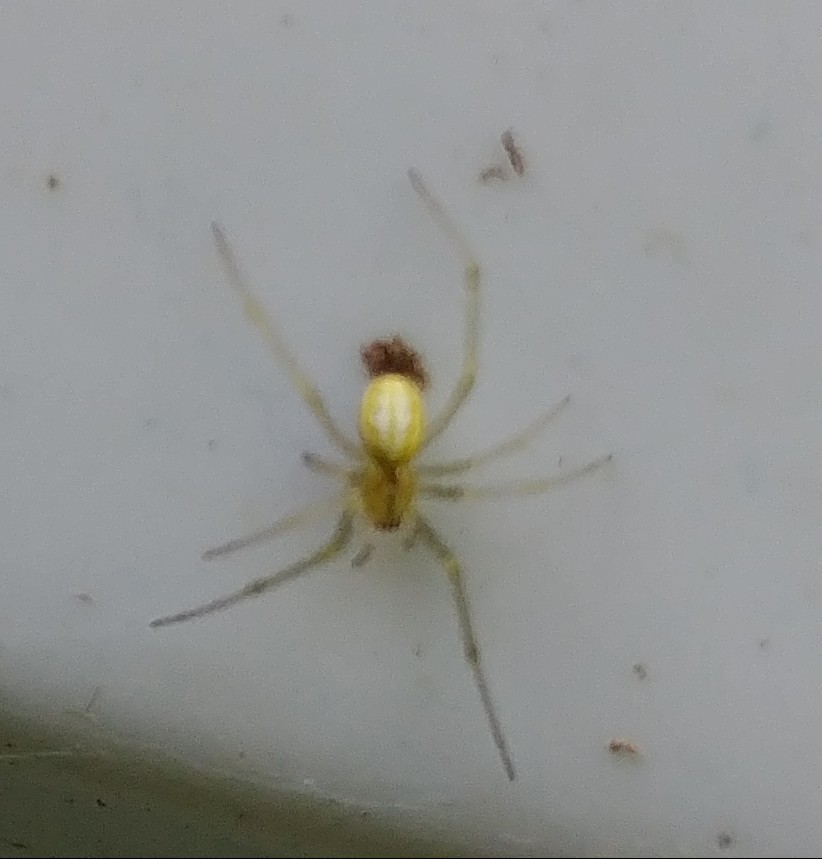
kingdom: Animalia
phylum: Arthropoda
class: Arachnida
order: Araneae
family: Theridiidae
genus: Enoplognatha
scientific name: Enoplognatha ovata
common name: Common candy-striped spider
